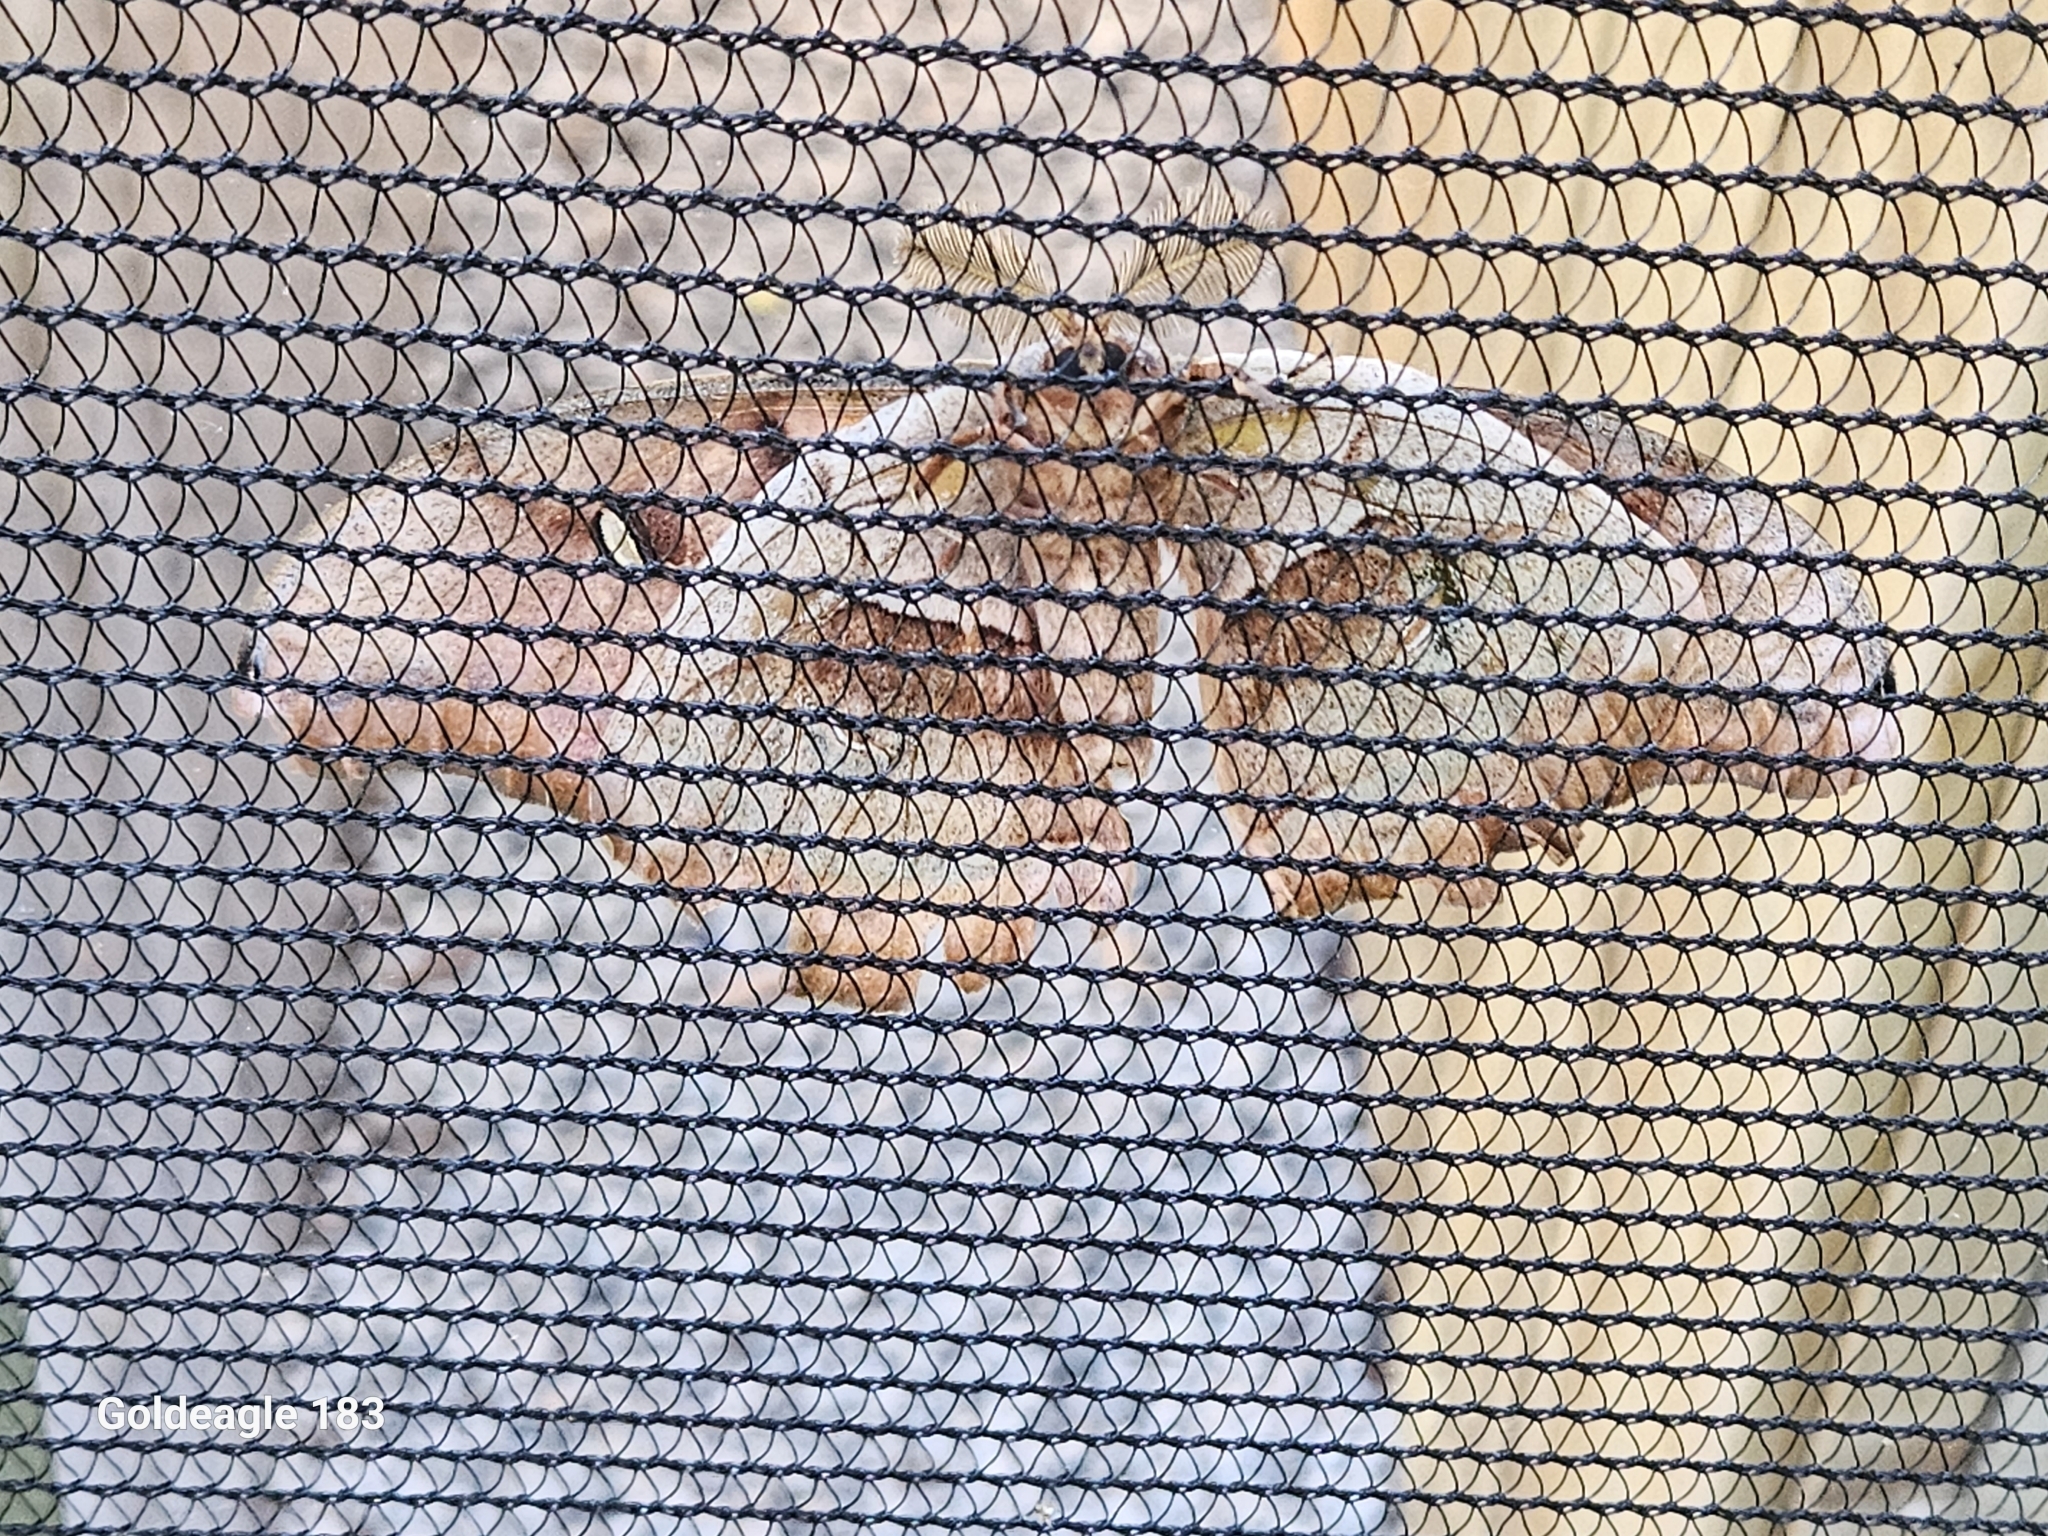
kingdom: Animalia
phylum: Arthropoda
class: Insecta
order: Lepidoptera
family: Saturniidae
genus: Antheraea
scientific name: Antheraea polyphemus
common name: Polyphemus moth
